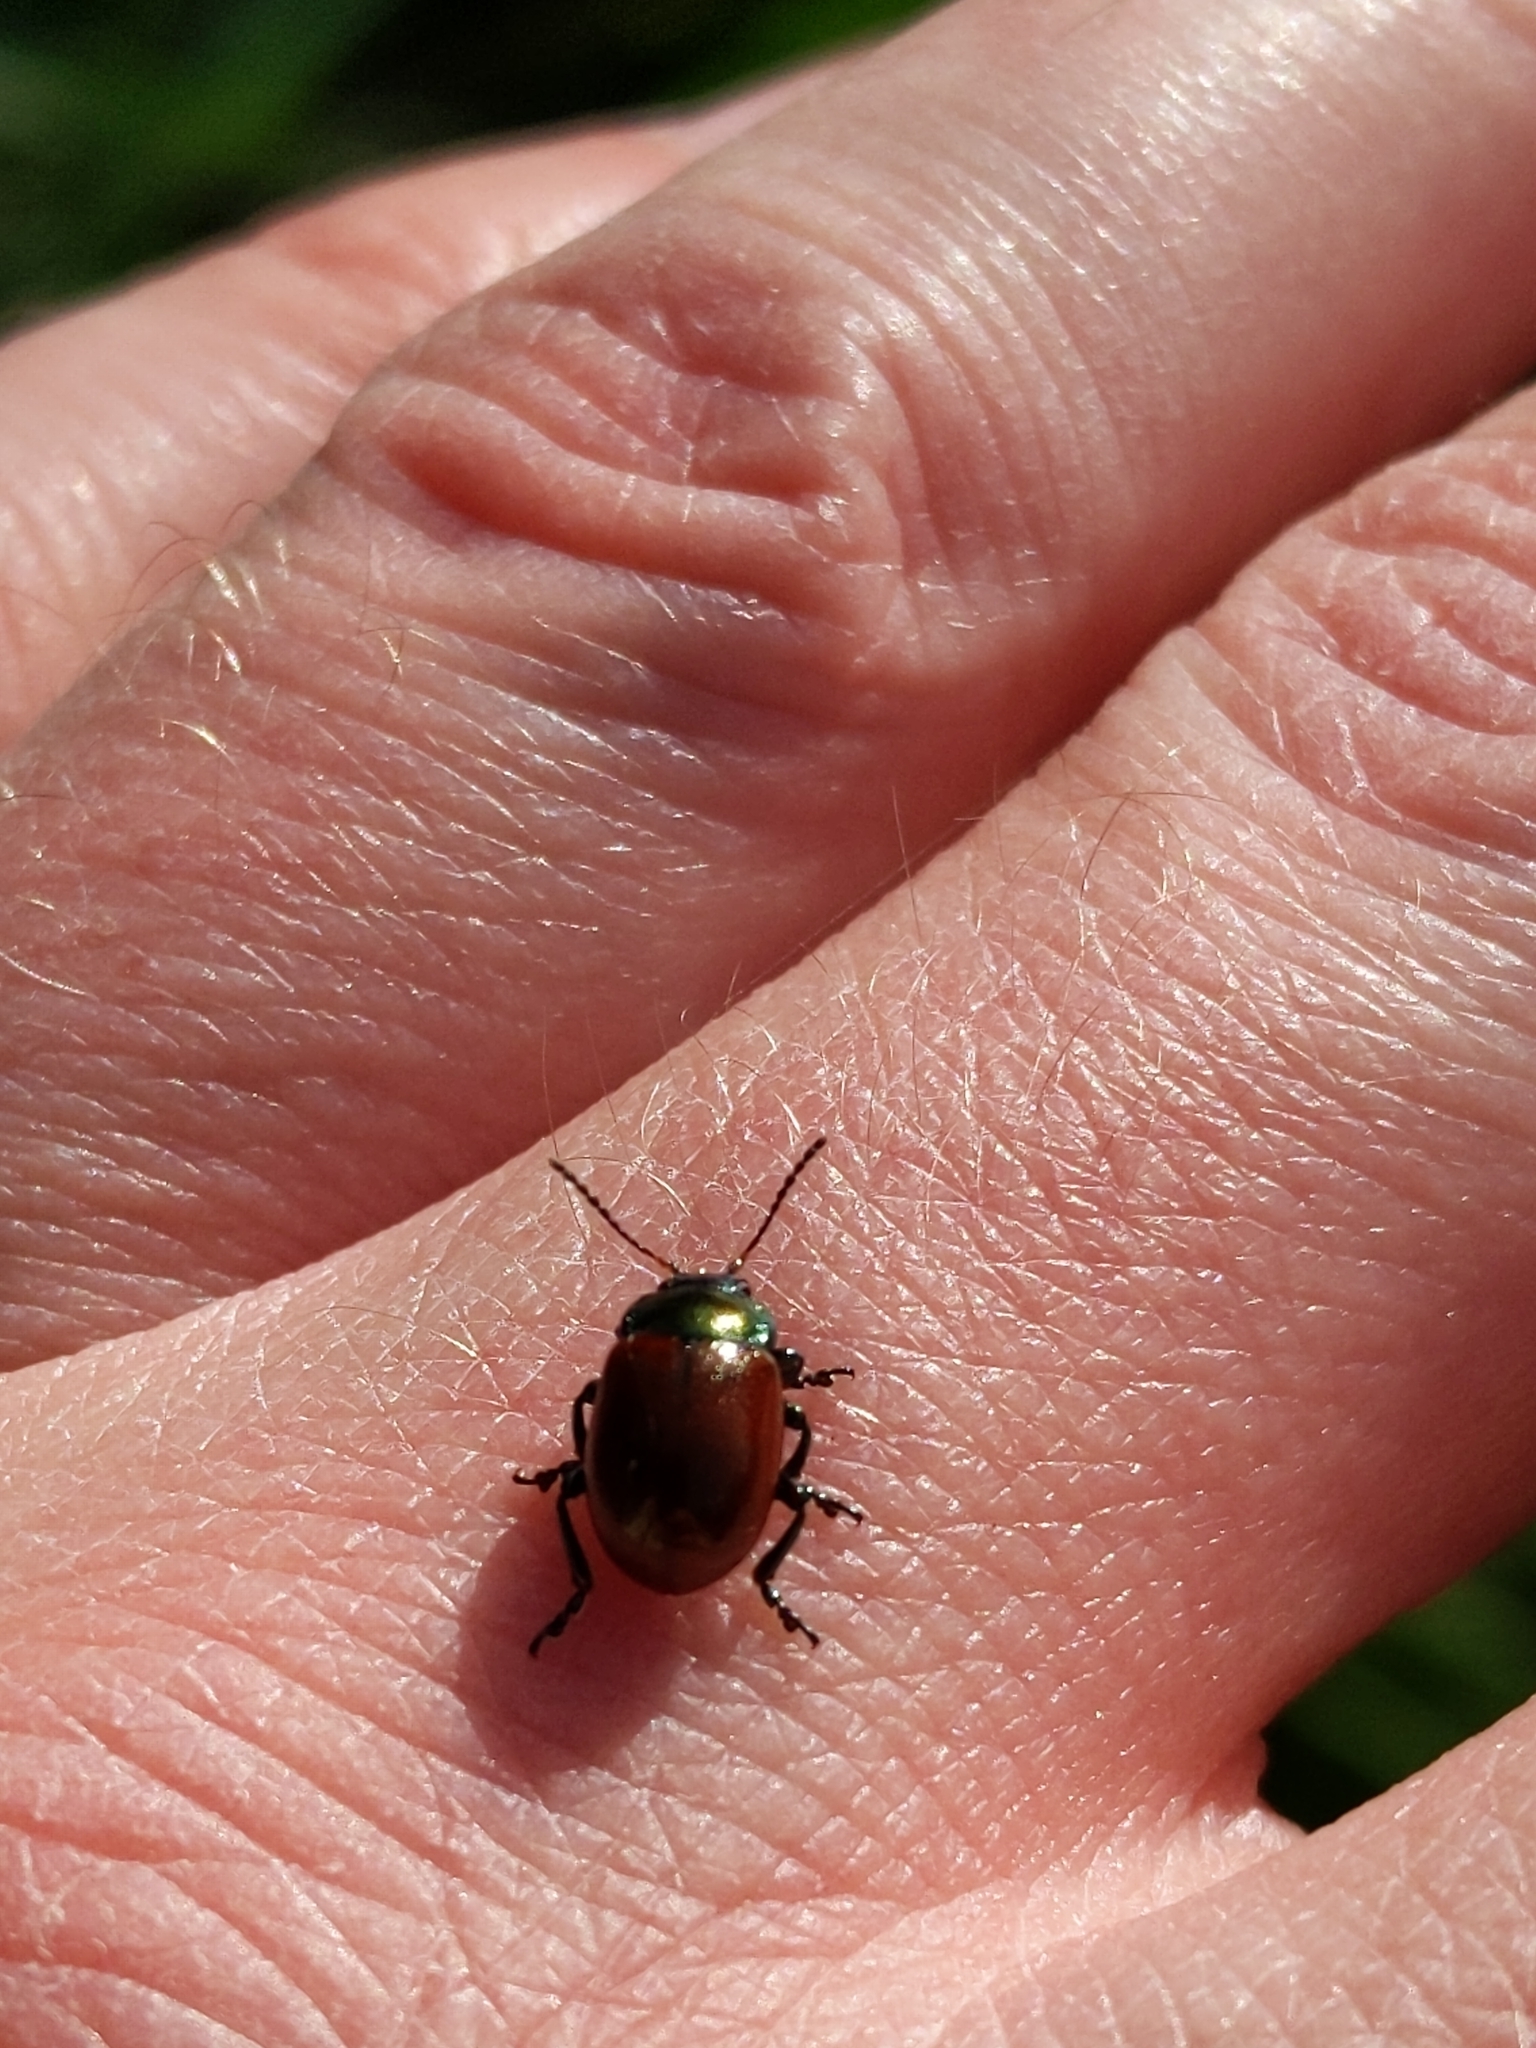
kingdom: Animalia
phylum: Arthropoda
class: Insecta
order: Coleoptera
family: Chrysomelidae
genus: Chrysomela
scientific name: Chrysomela polita
